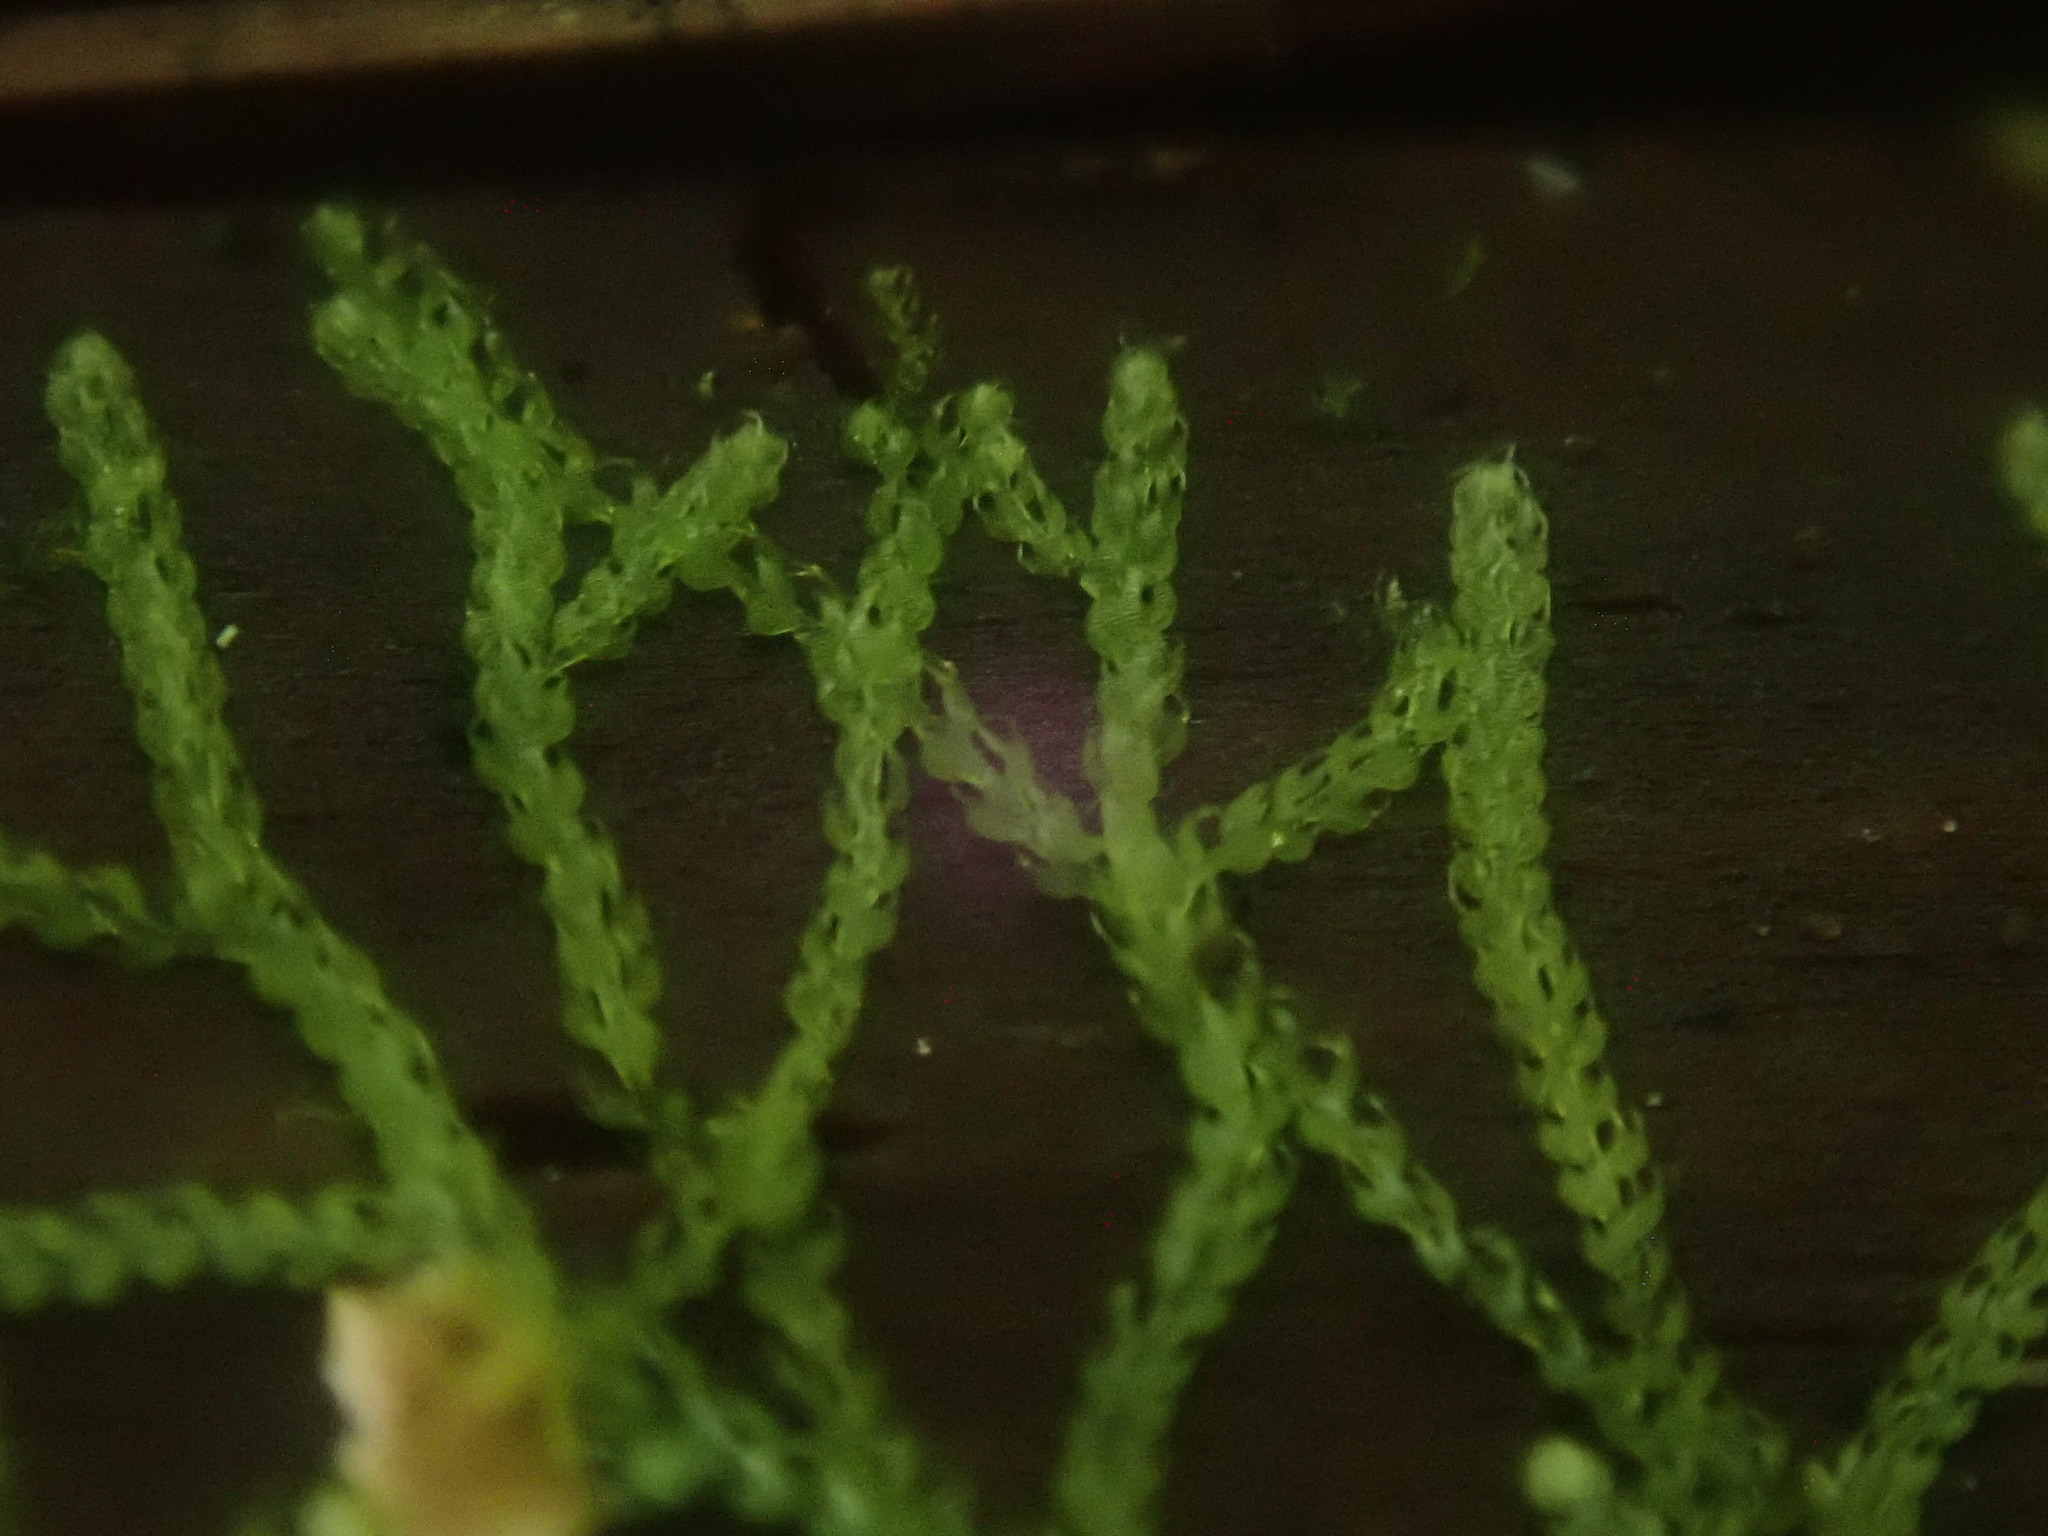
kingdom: Plantae
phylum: Marchantiophyta
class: Jungermanniopsida
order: Jungermanniales
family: Cephaloziaceae
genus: Nowellia
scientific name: Nowellia curvifolia
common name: Wood rustwort
